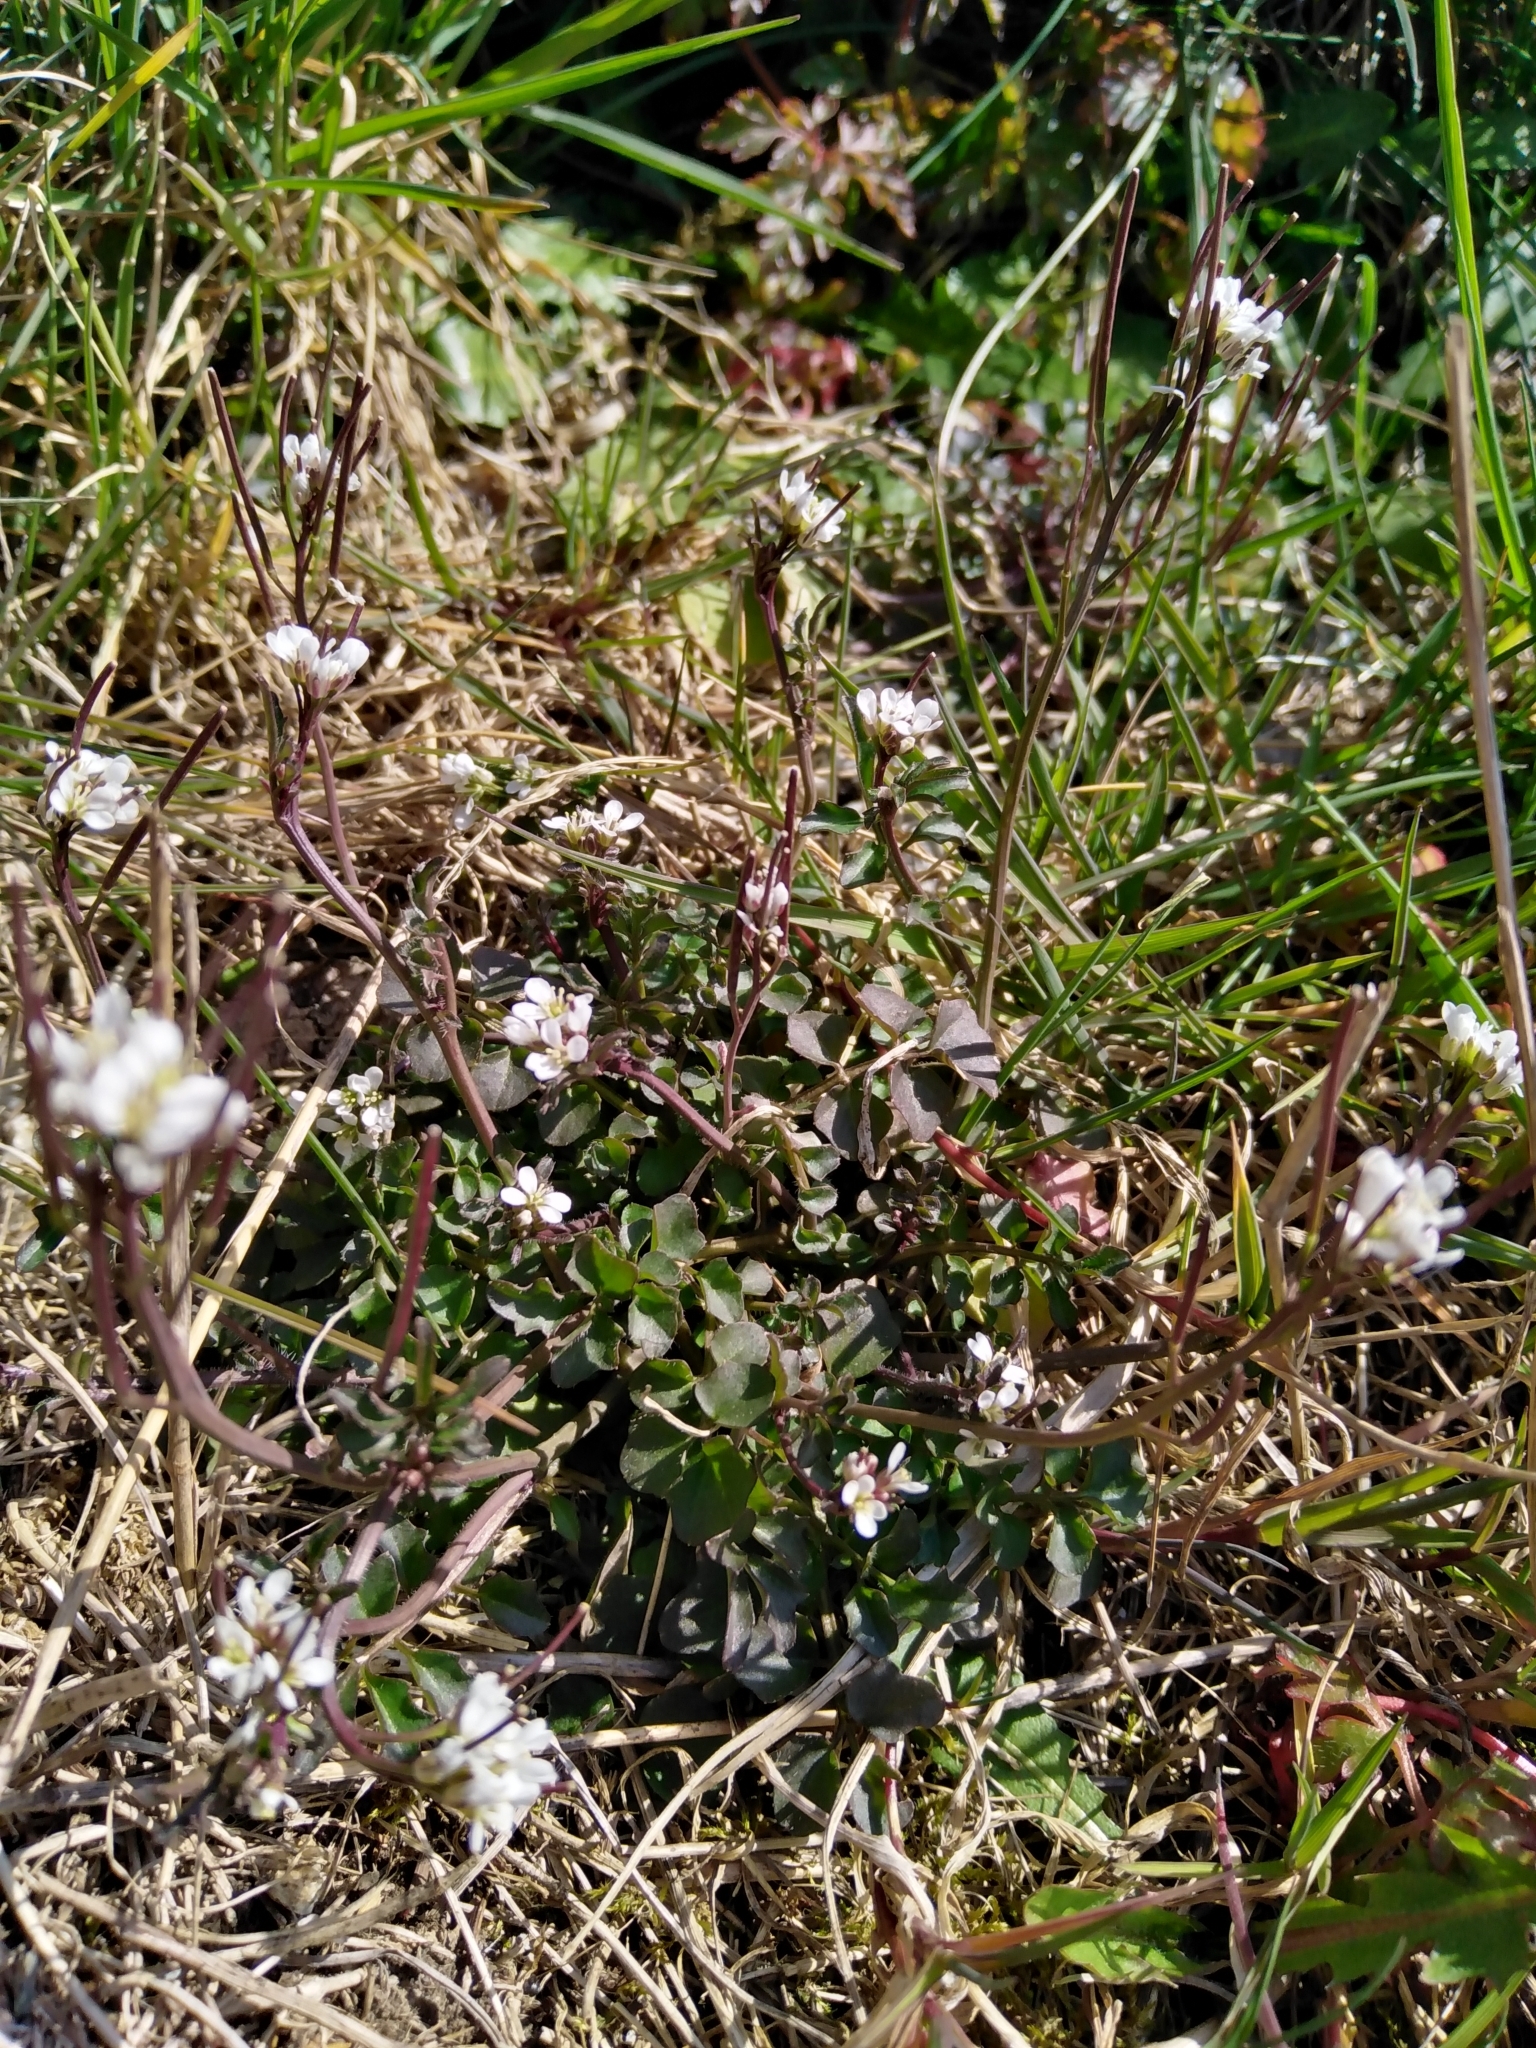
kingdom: Plantae
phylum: Tracheophyta
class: Magnoliopsida
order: Brassicales
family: Brassicaceae
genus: Cardamine
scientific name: Cardamine hirsuta
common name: Hairy bittercress
